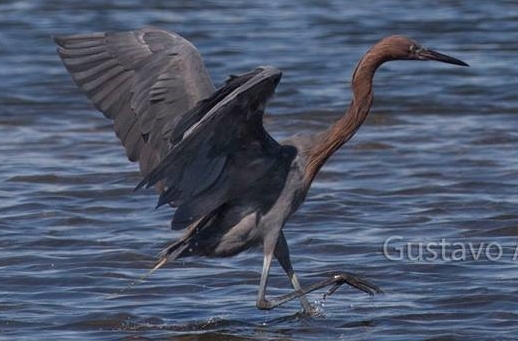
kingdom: Animalia
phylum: Chordata
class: Aves
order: Pelecaniformes
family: Ardeidae
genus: Egretta
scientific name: Egretta rufescens
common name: Reddish egret
